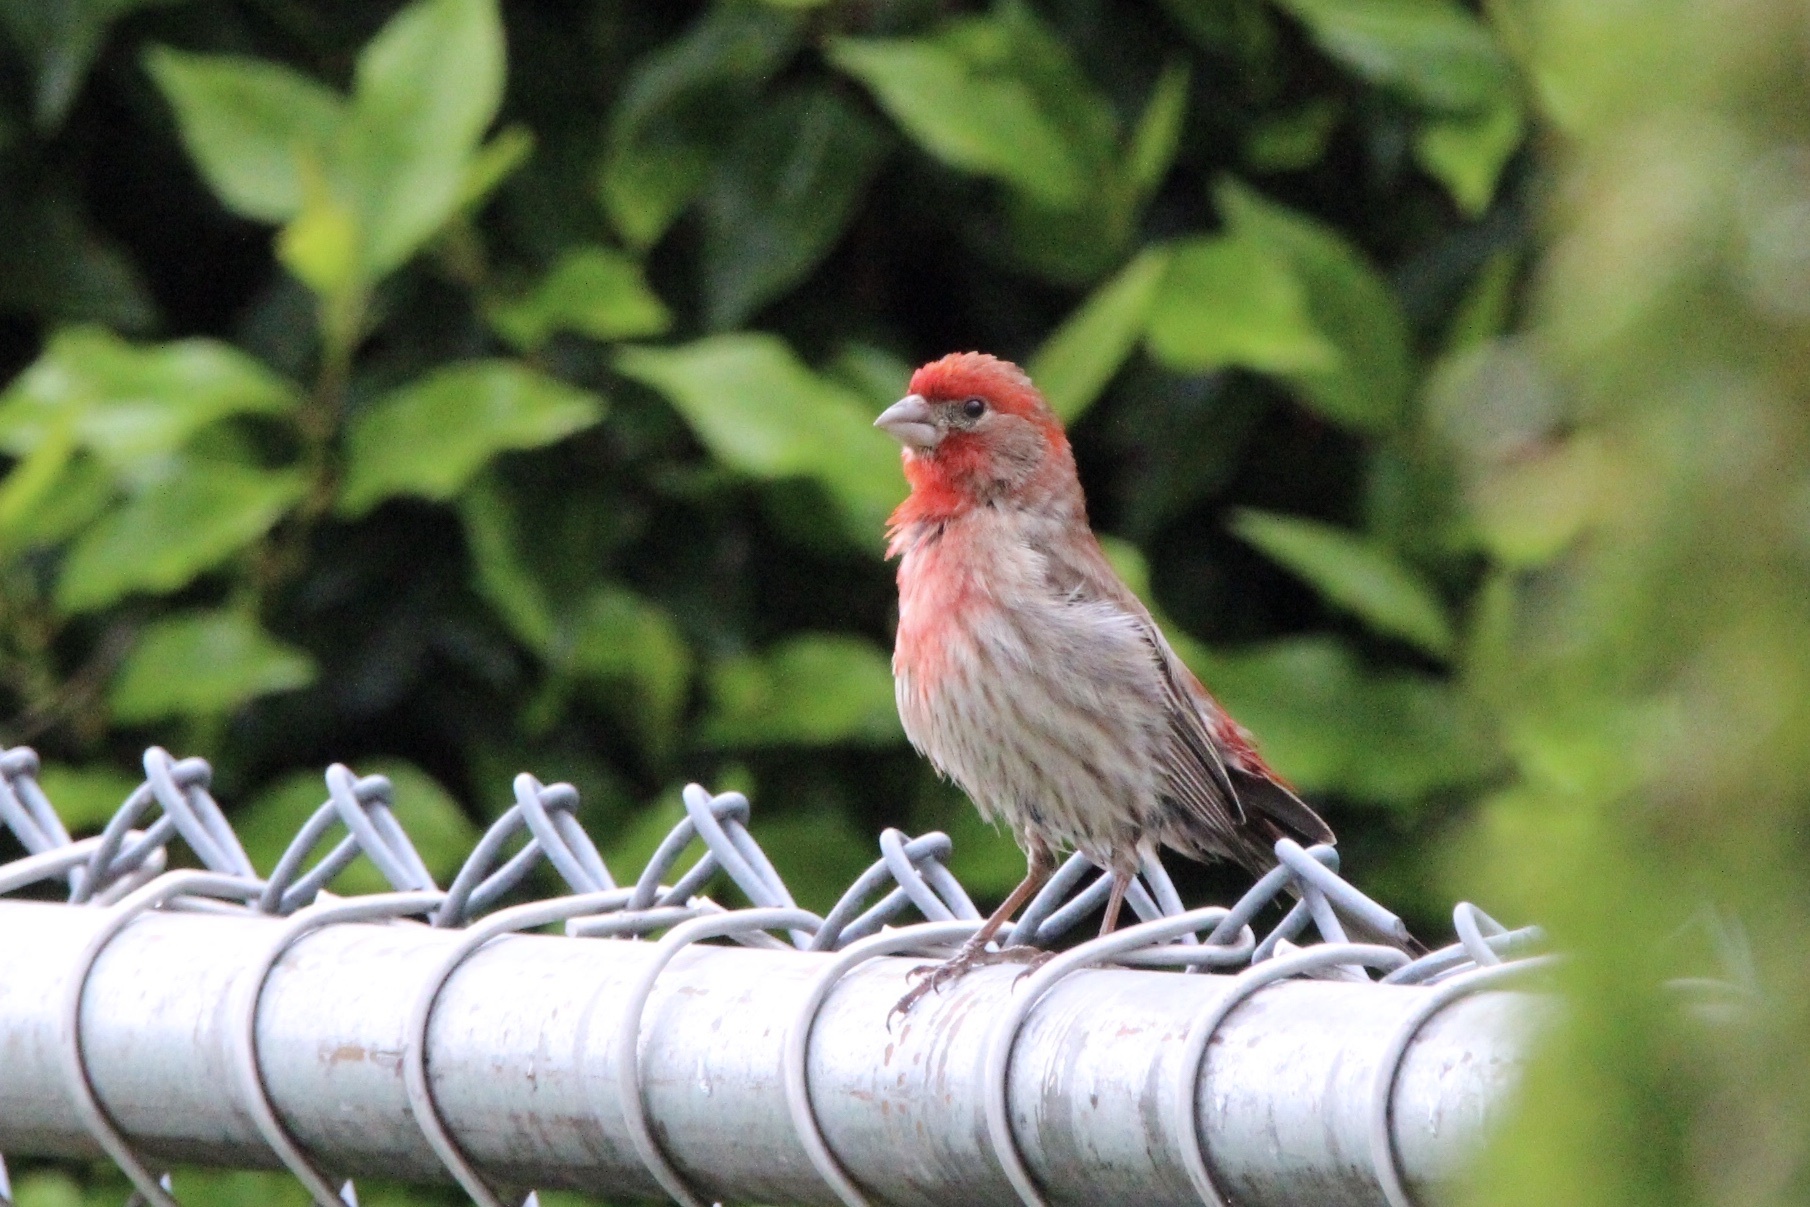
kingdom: Animalia
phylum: Chordata
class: Aves
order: Passeriformes
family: Fringillidae
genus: Haemorhous
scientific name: Haemorhous mexicanus
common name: House finch
